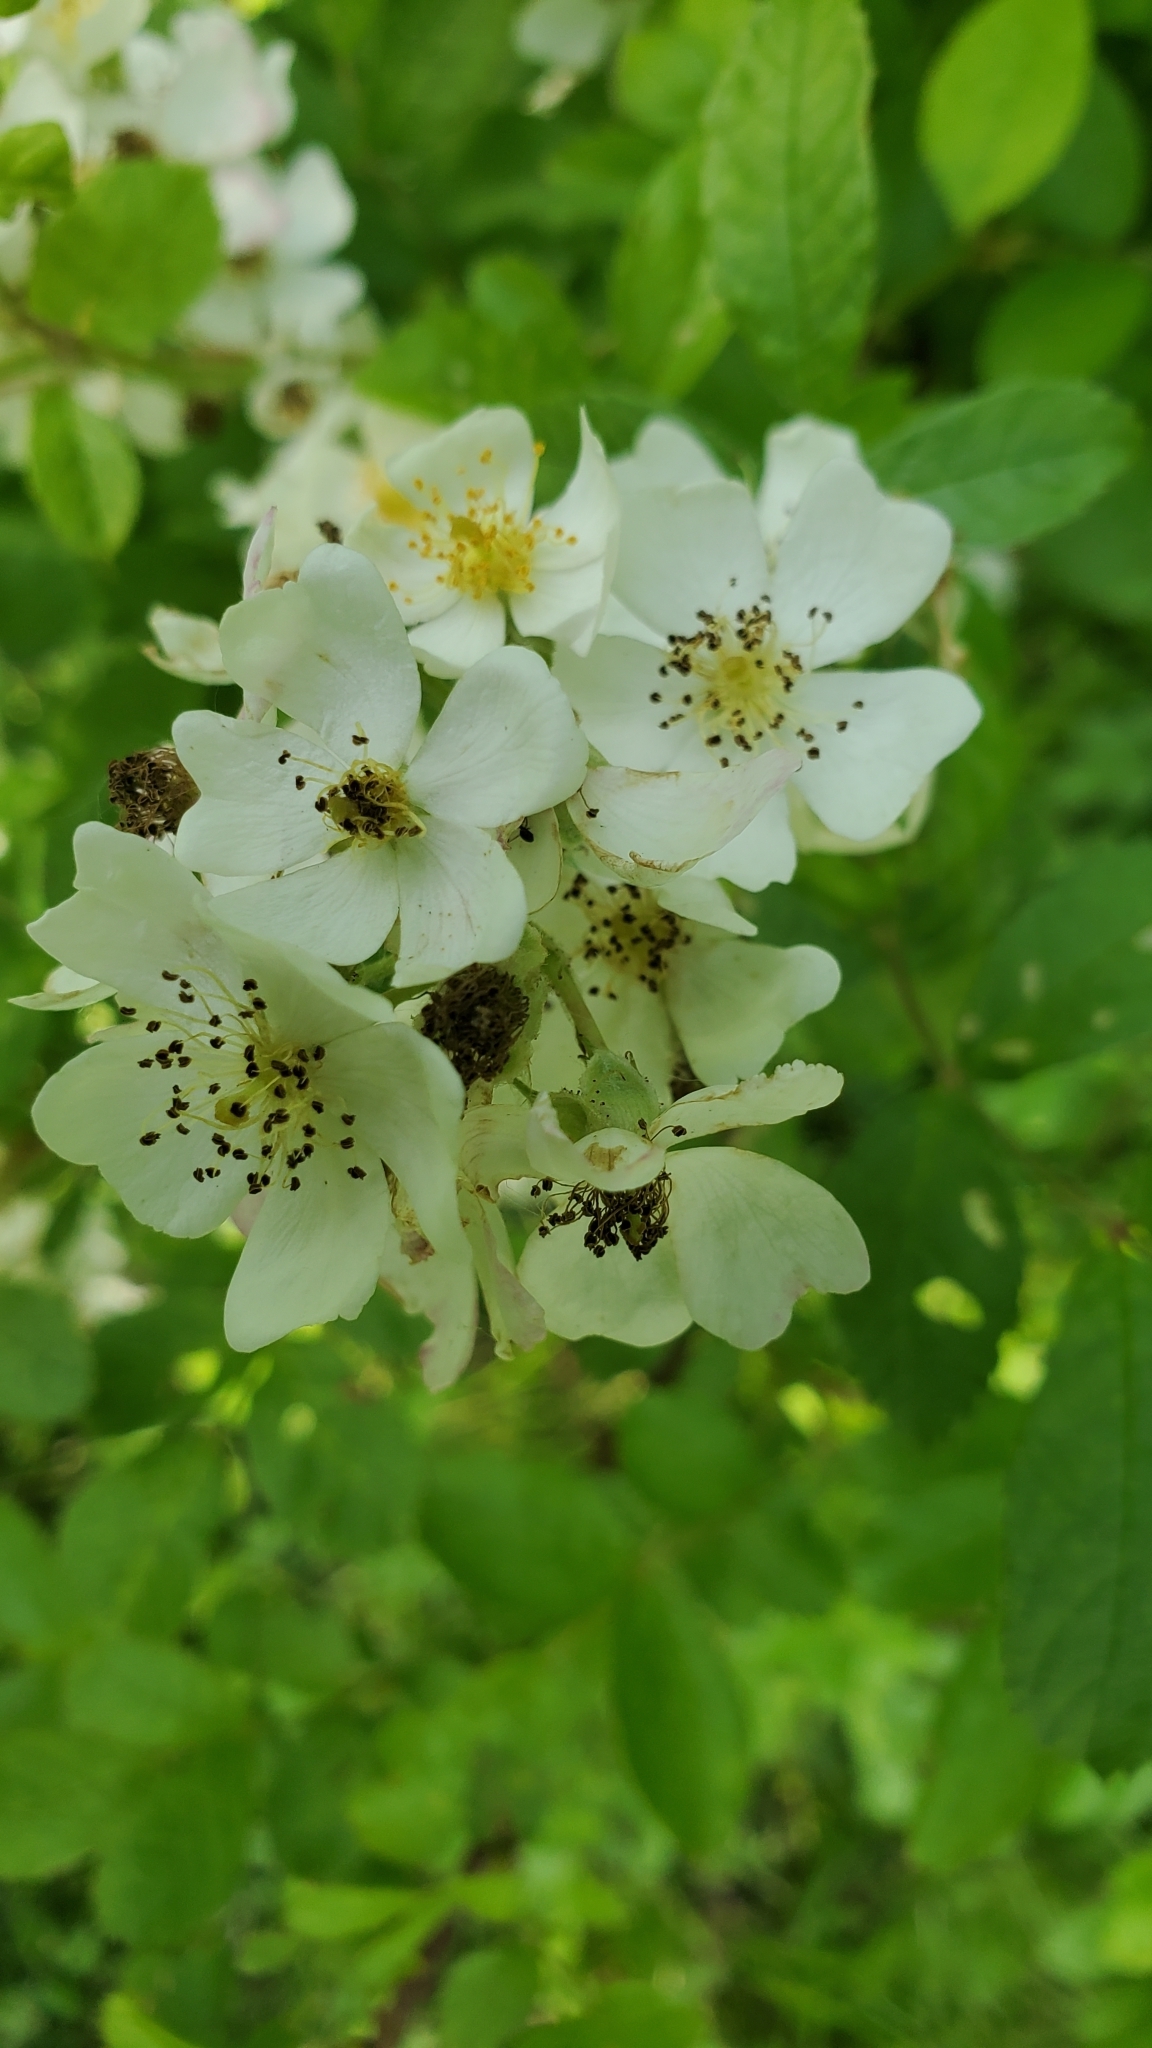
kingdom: Plantae
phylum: Tracheophyta
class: Magnoliopsida
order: Rosales
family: Rosaceae
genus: Rosa
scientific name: Rosa multiflora
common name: Multiflora rose
